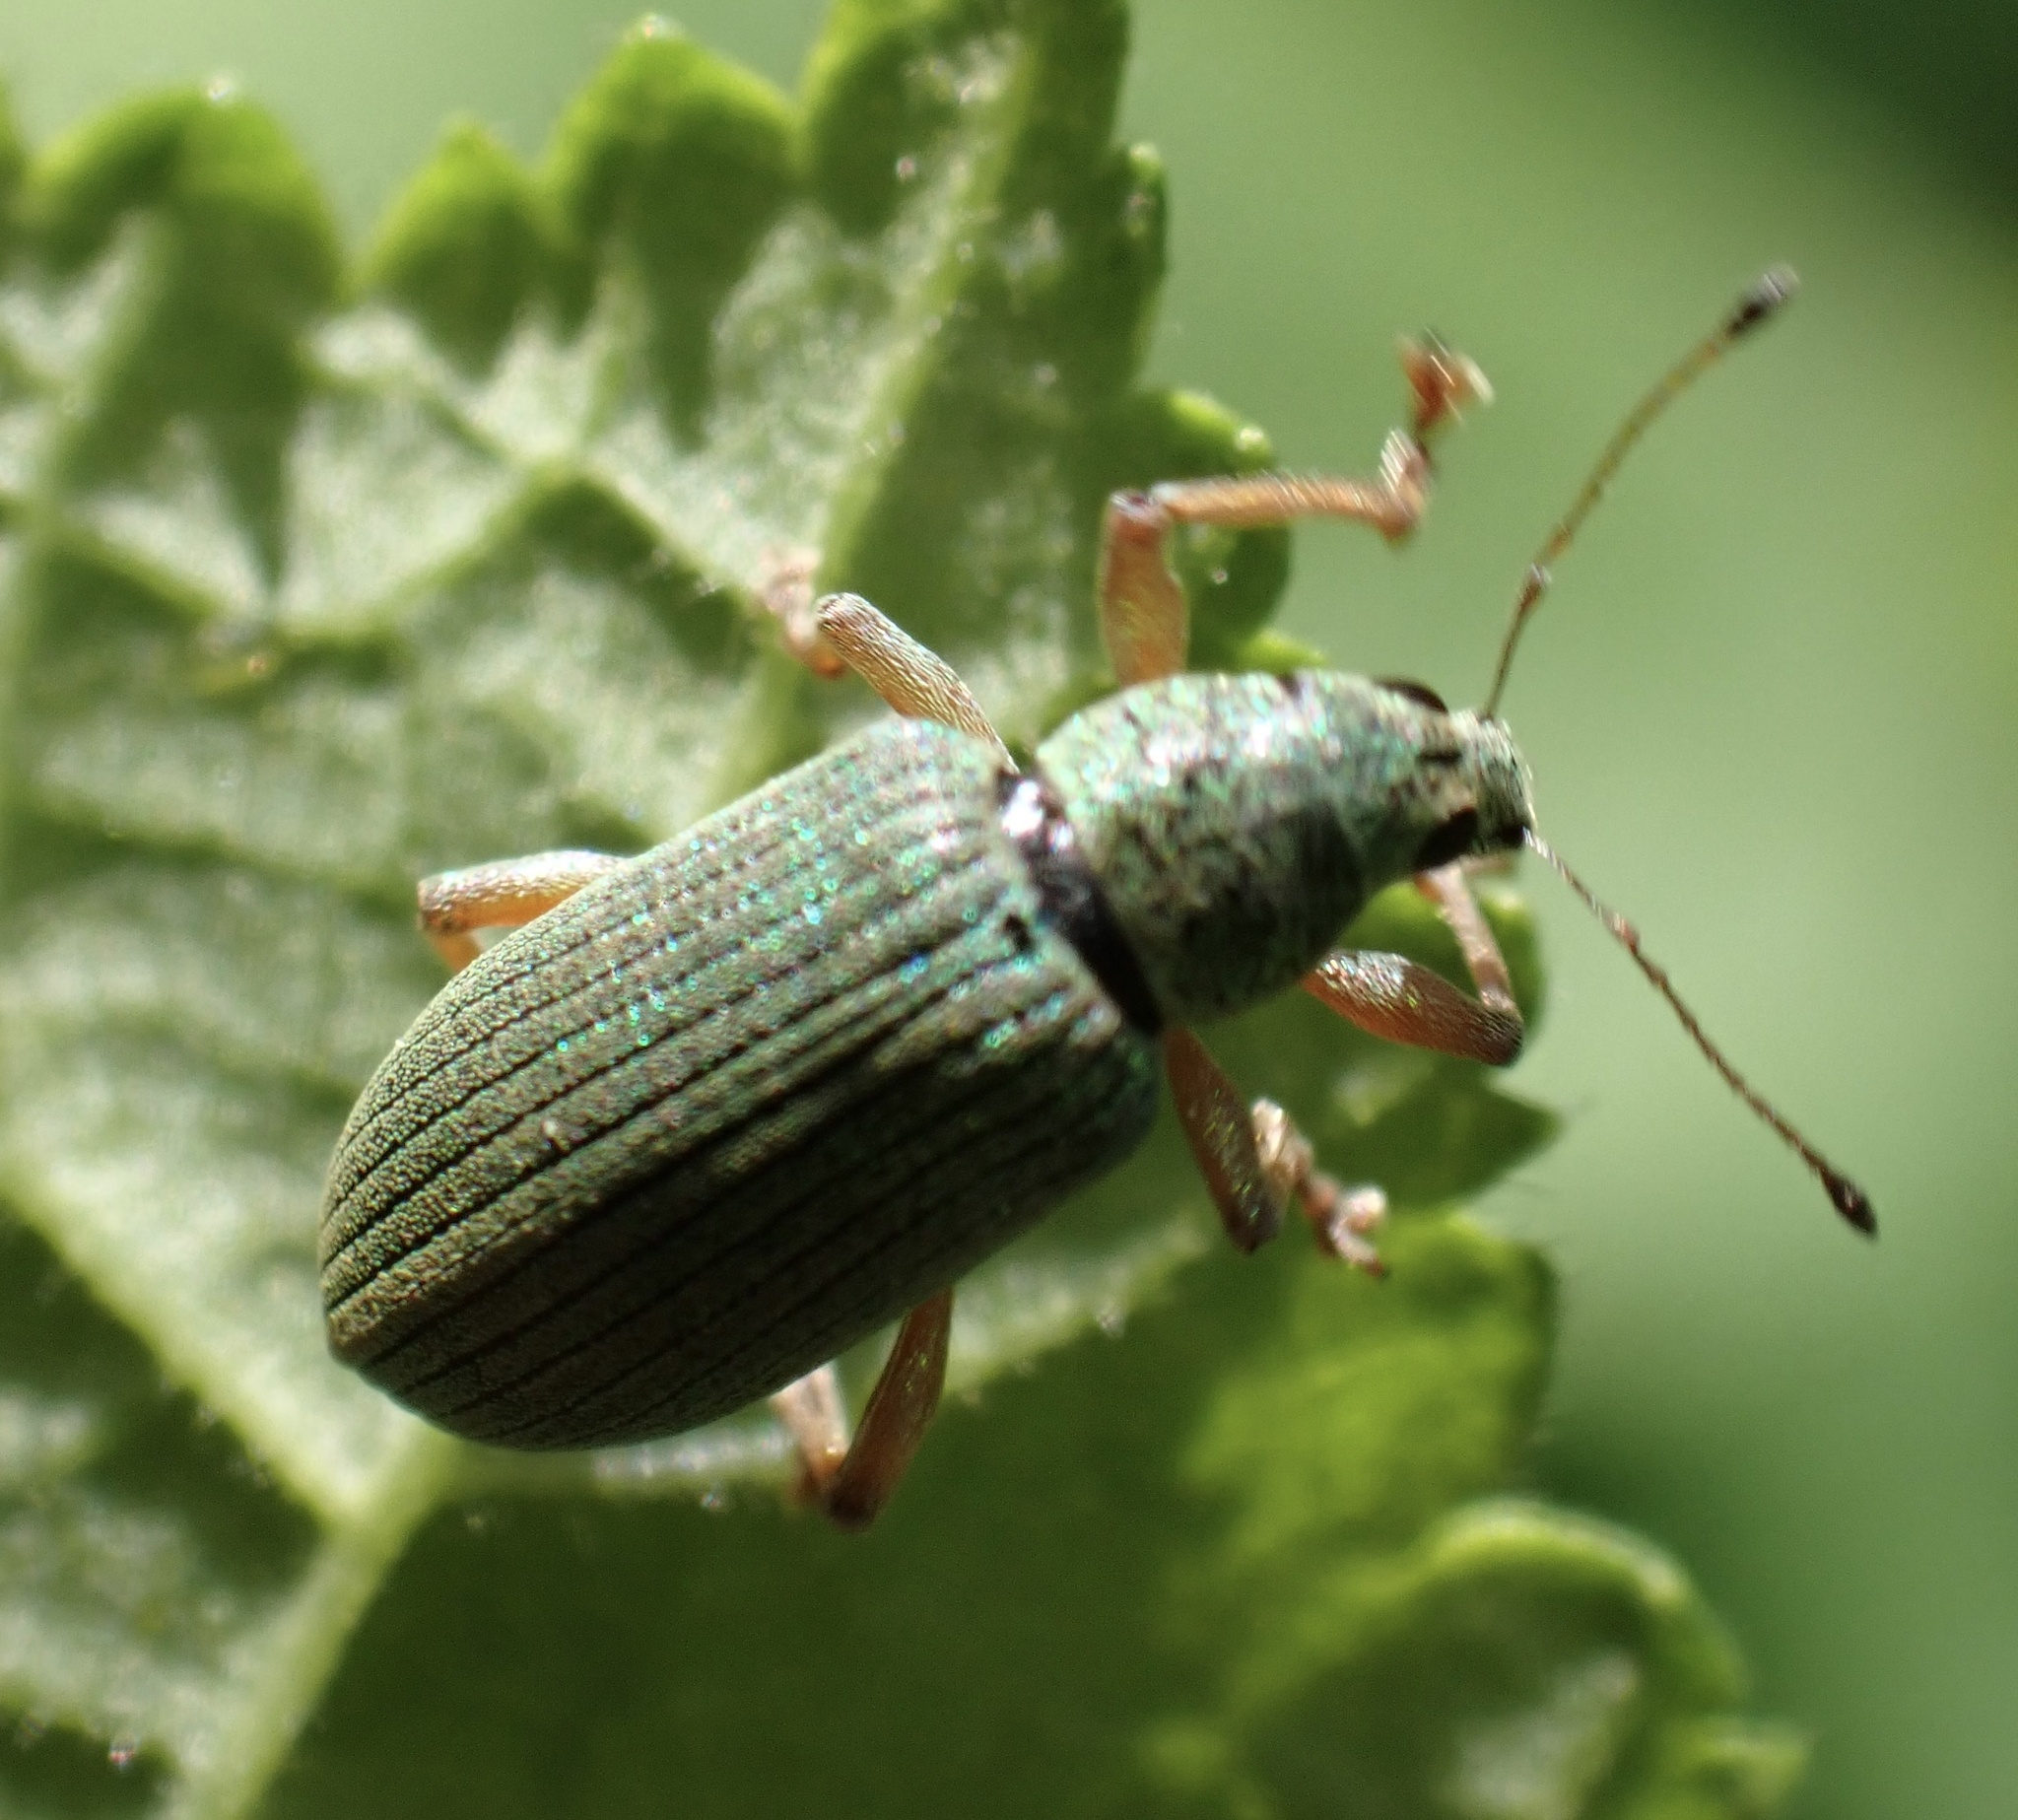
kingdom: Animalia
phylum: Arthropoda
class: Insecta
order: Coleoptera
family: Curculionidae
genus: Polydrusus
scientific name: Polydrusus formosus
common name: Weevil
